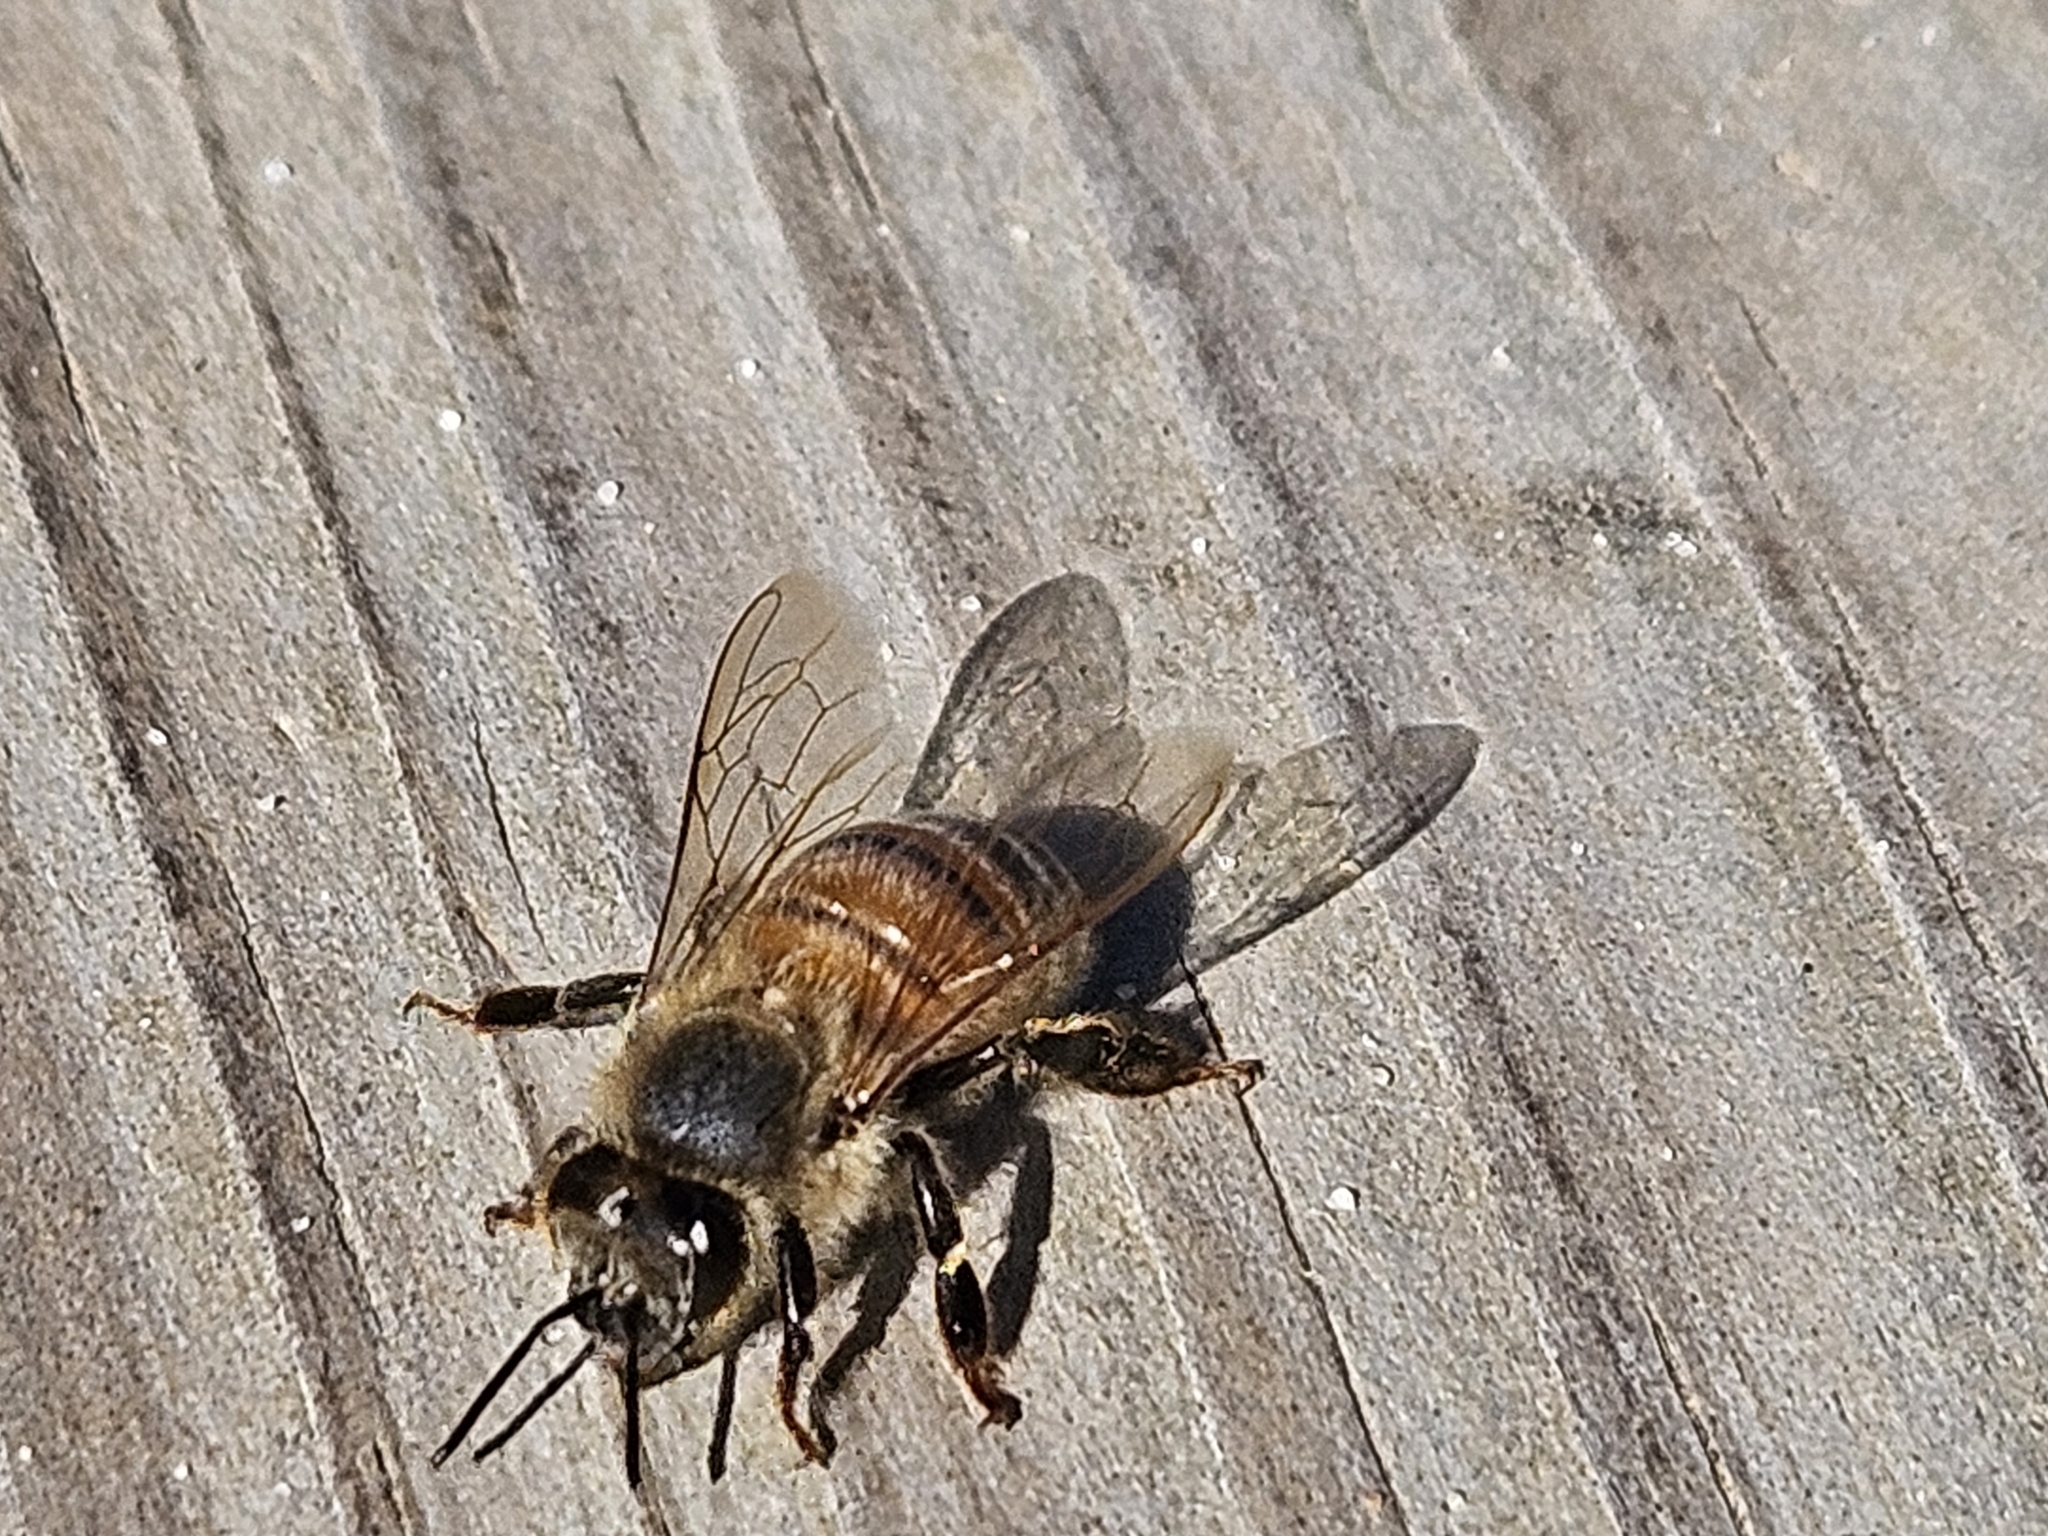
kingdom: Animalia
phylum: Arthropoda
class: Insecta
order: Hymenoptera
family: Apidae
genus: Apis
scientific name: Apis mellifera
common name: Honey bee
